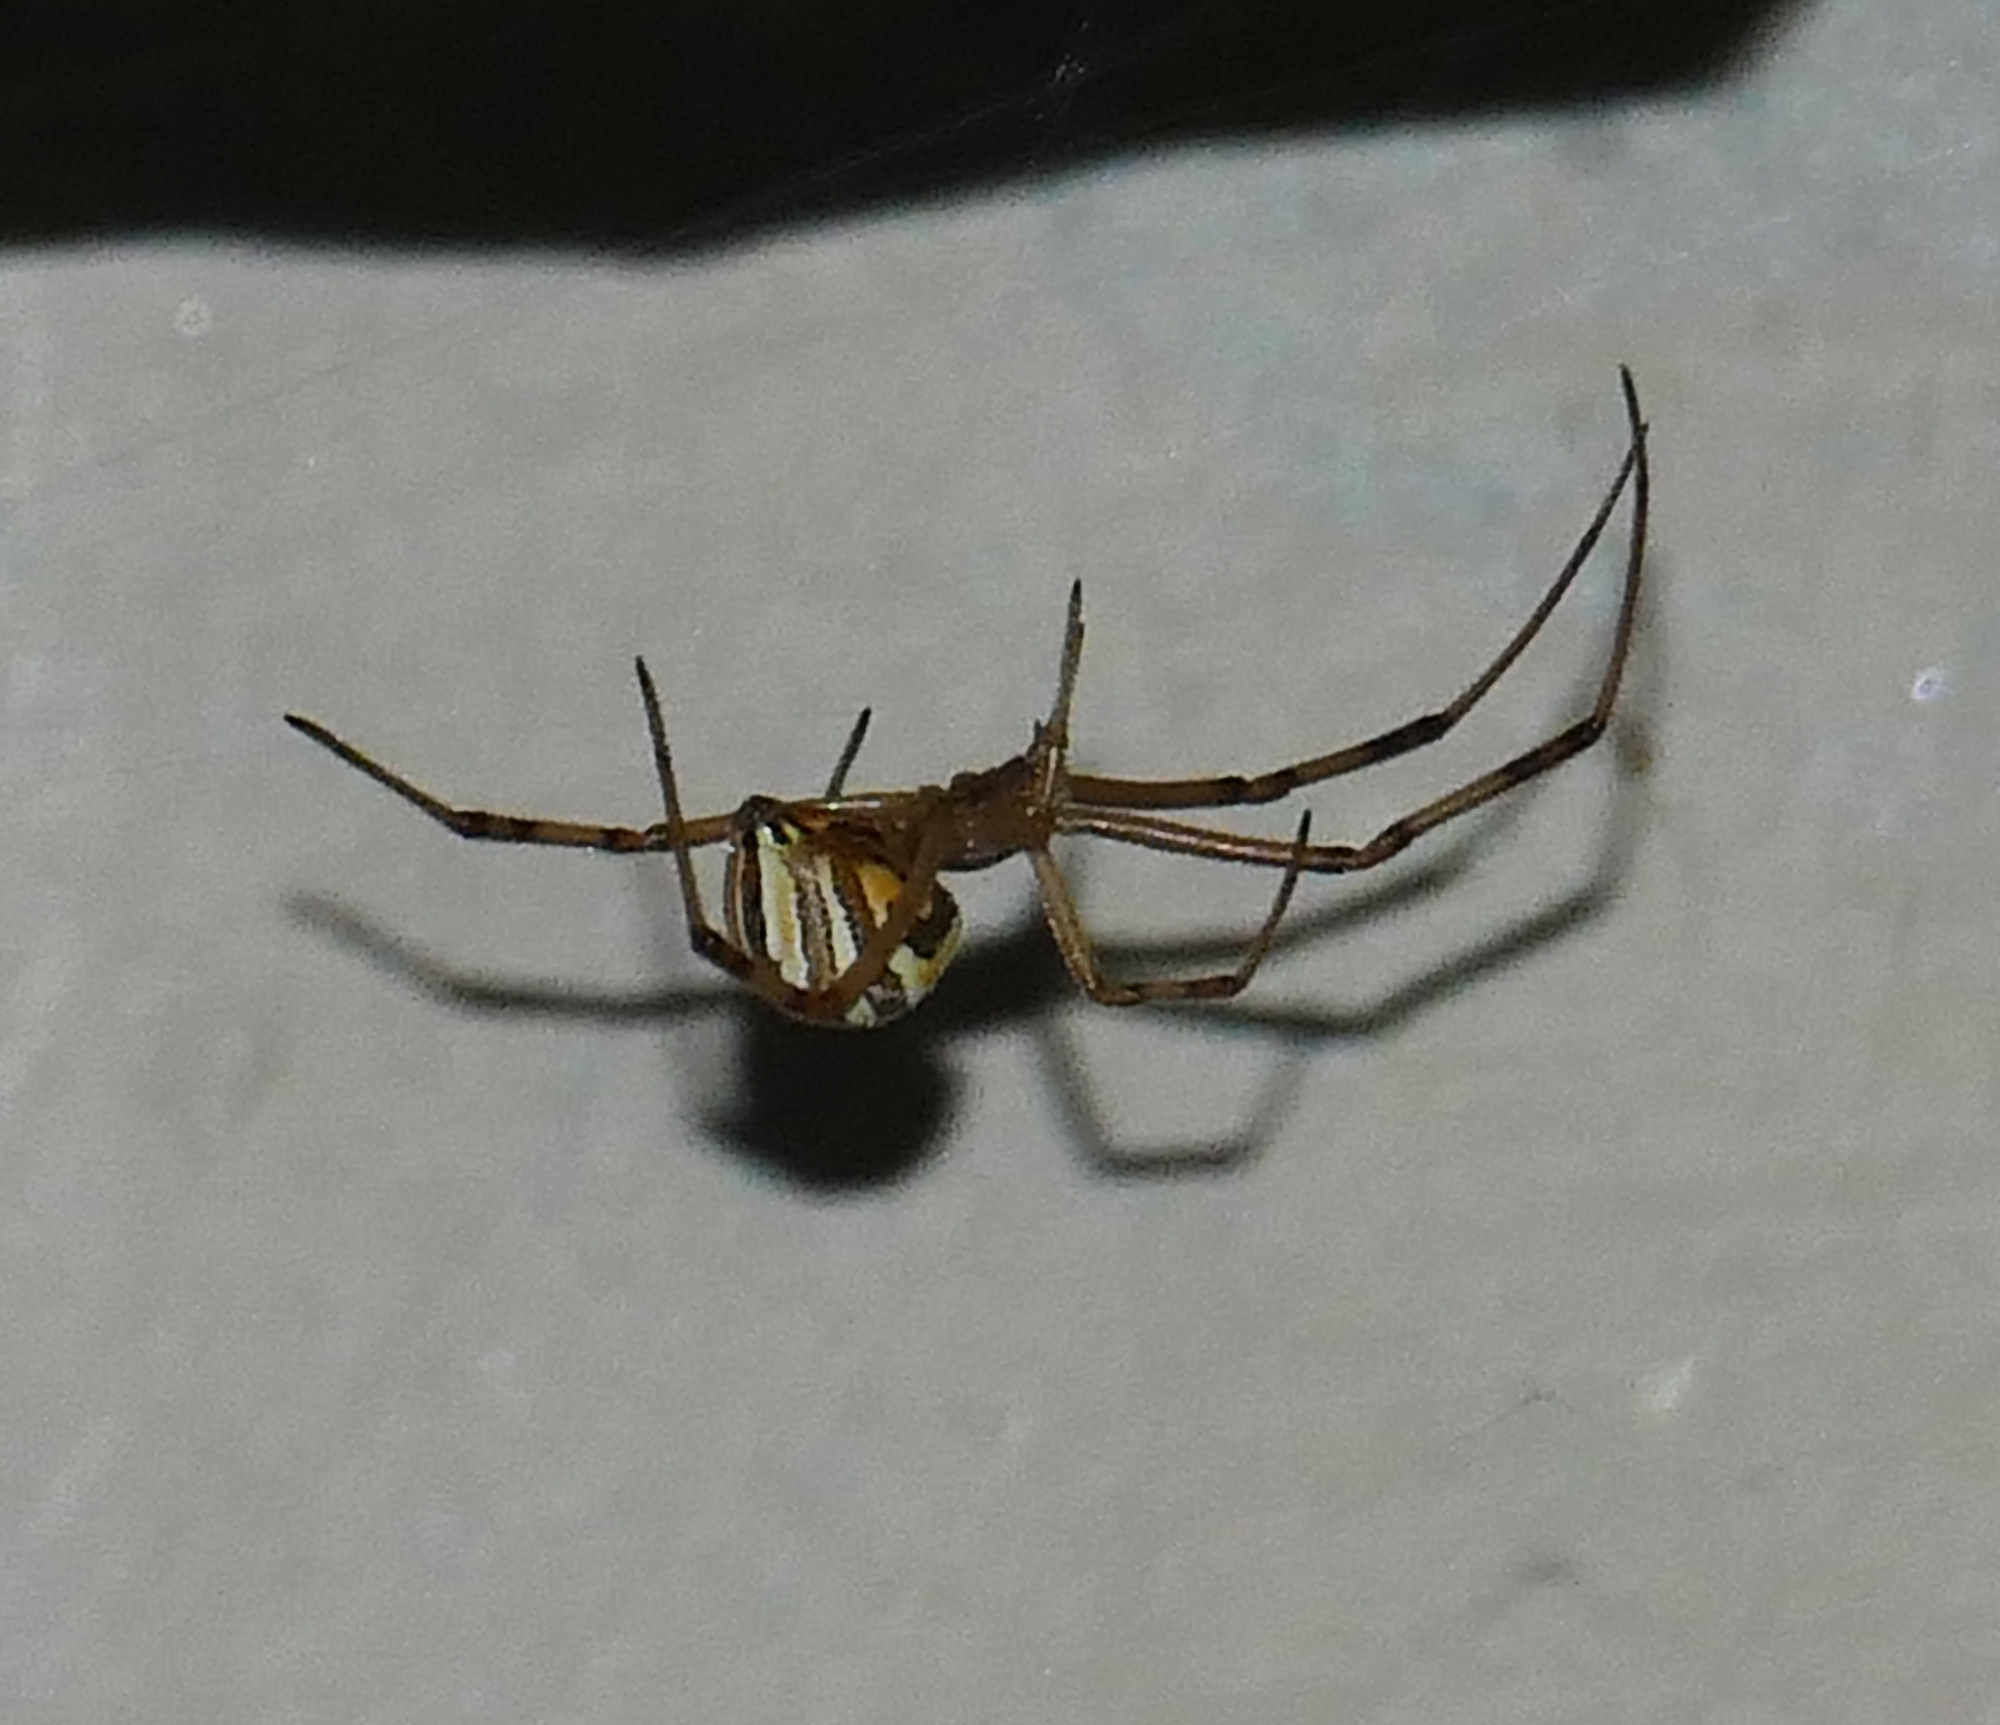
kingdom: Animalia
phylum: Arthropoda
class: Arachnida
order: Araneae
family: Theridiidae
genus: Latrodectus
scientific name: Latrodectus hesperus
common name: Western black widow
